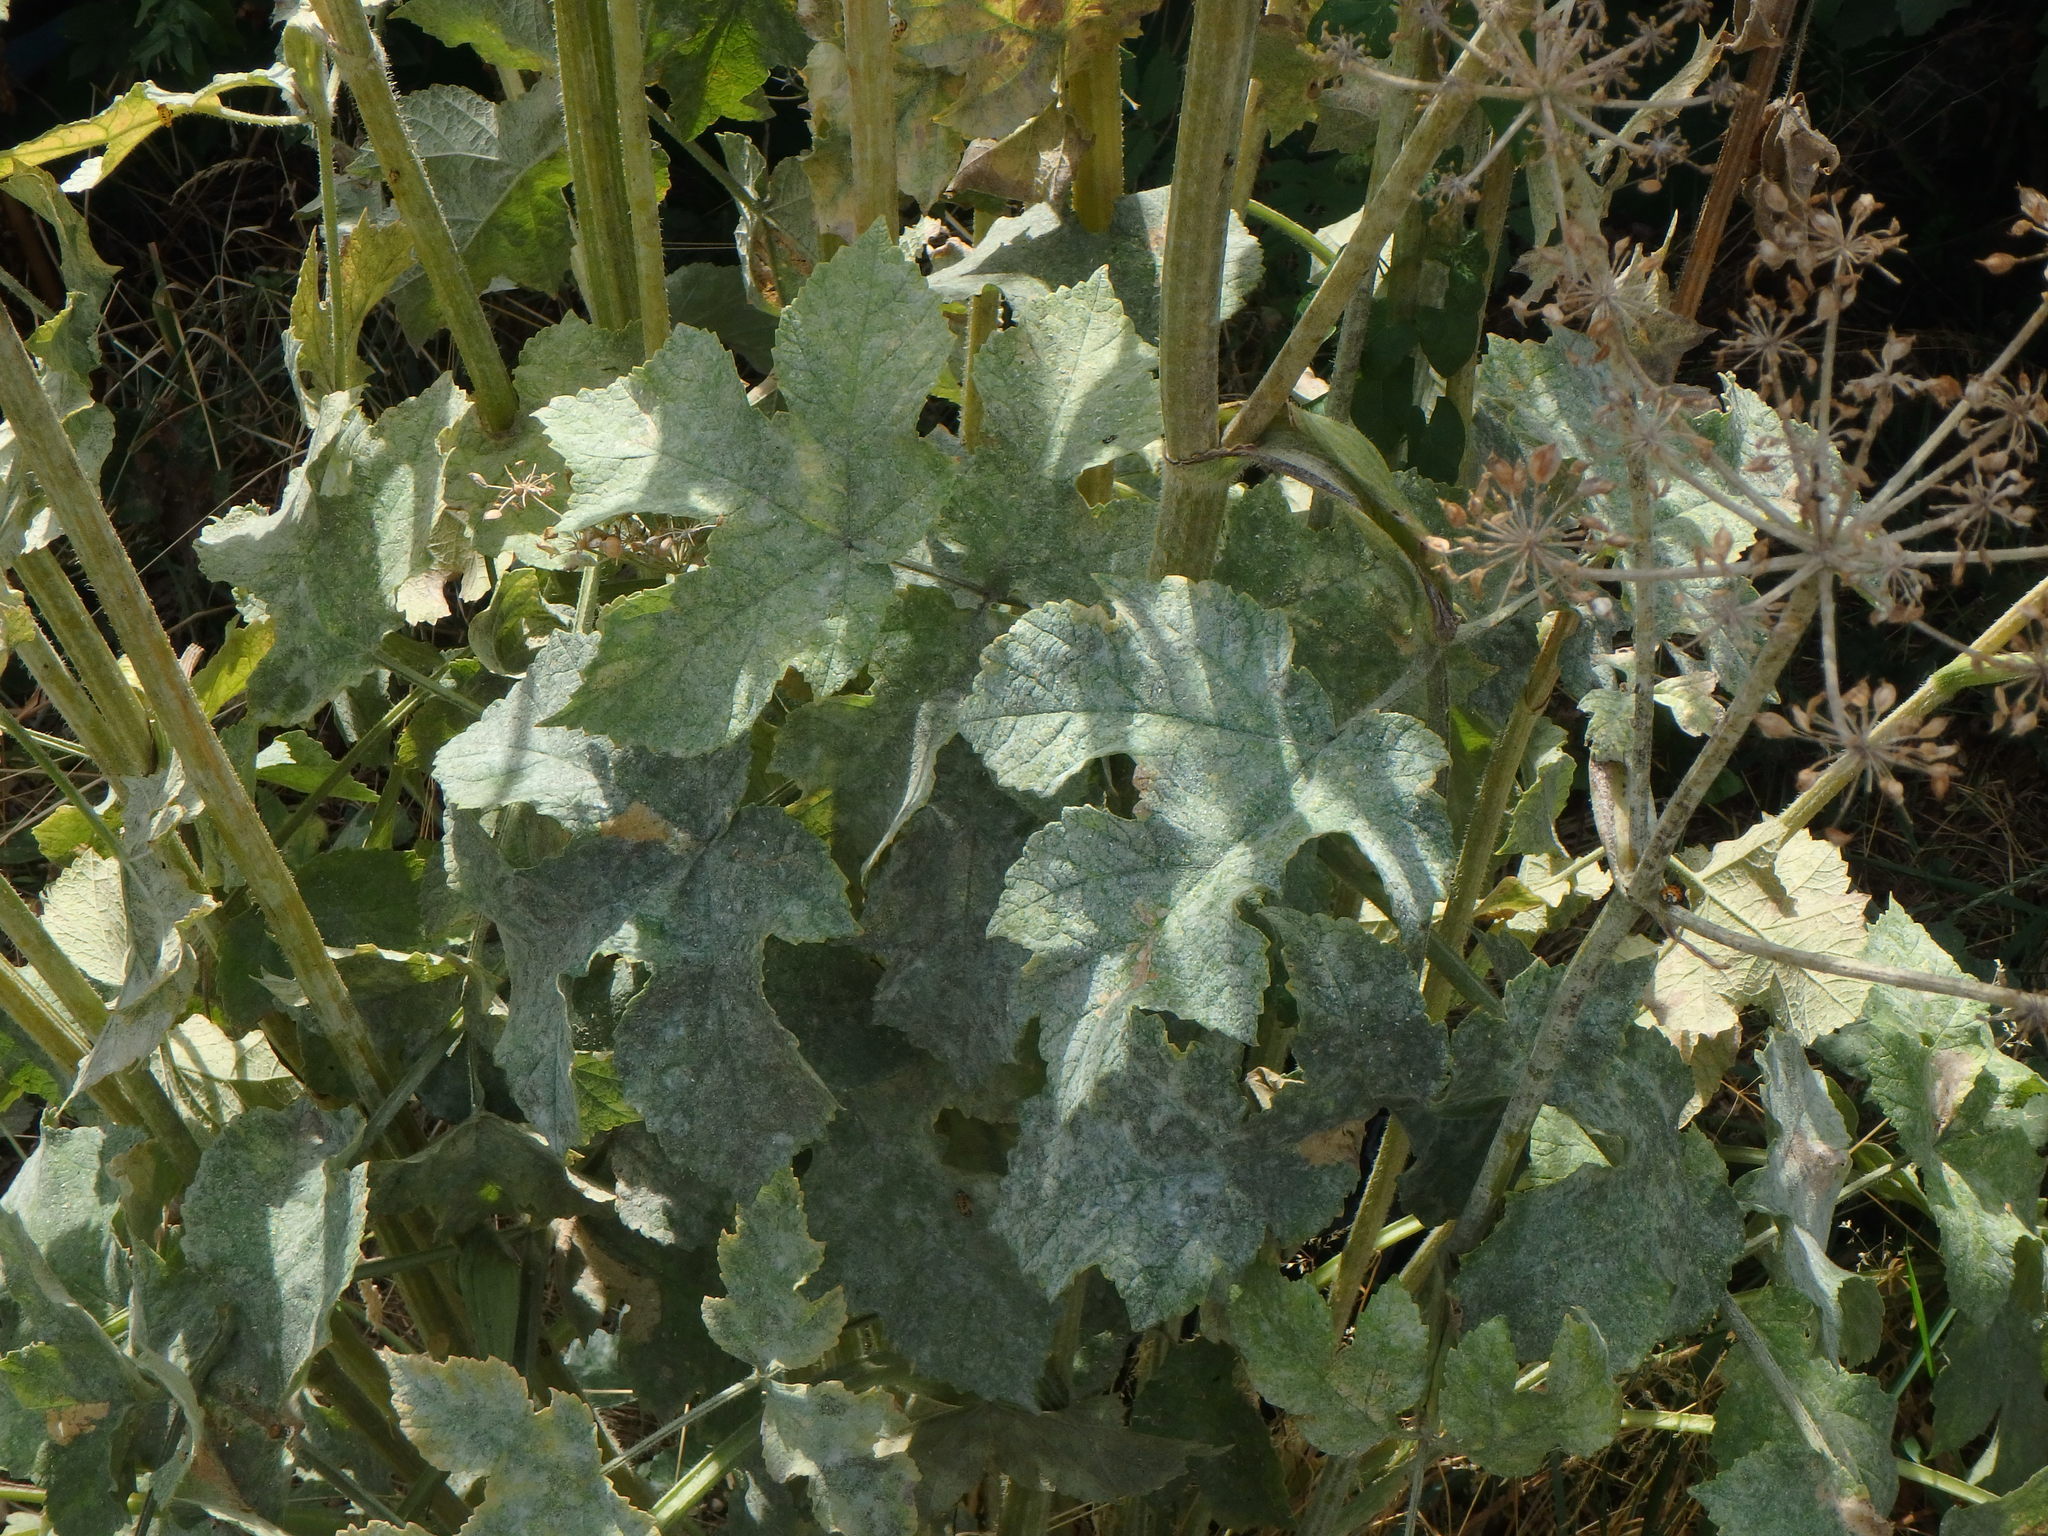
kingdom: Plantae
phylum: Tracheophyta
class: Magnoliopsida
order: Apiales
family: Apiaceae
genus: Heracleum
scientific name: Heracleum sphondylium
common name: Hogweed
